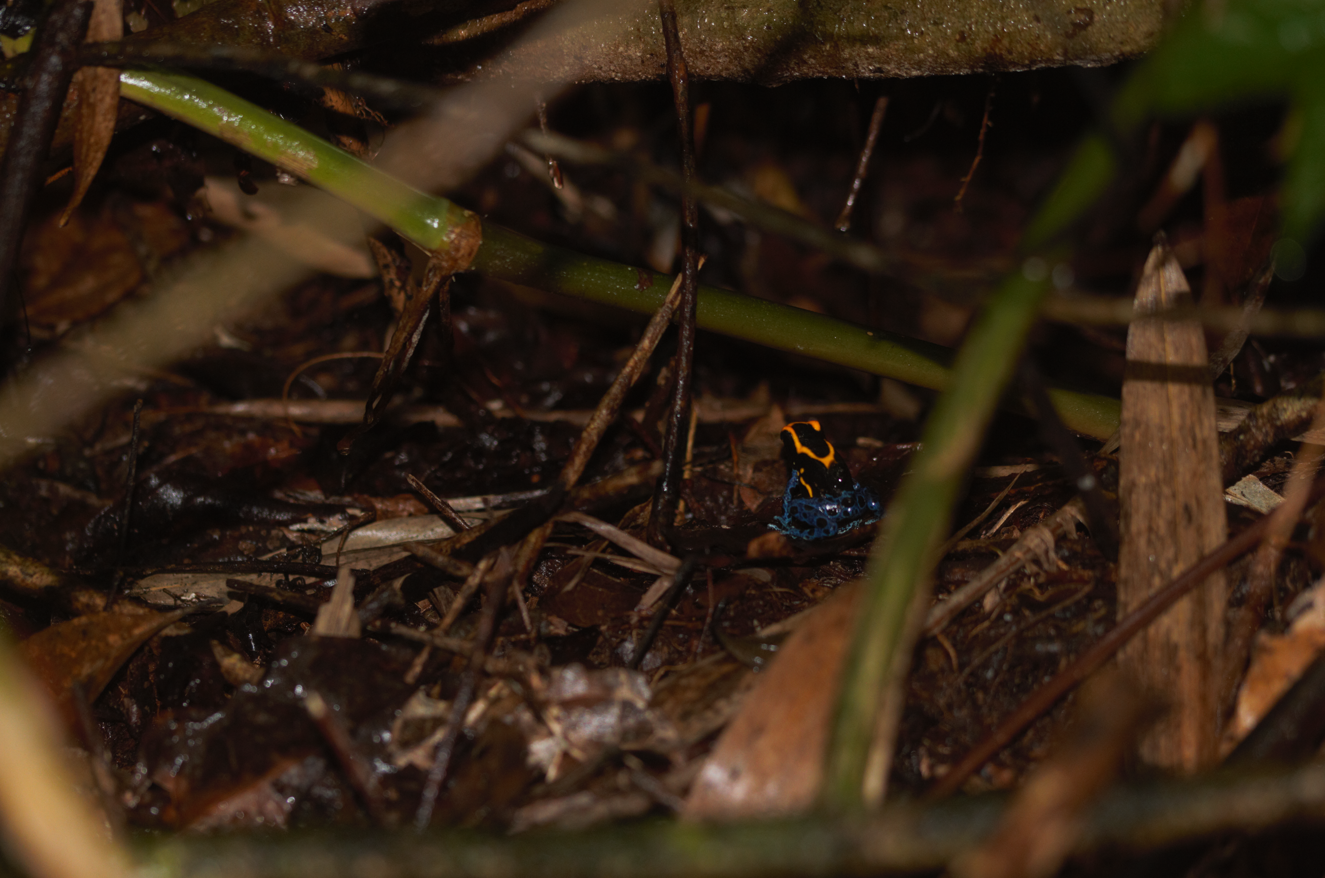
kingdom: Animalia
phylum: Chordata
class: Amphibia
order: Anura
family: Dendrobatidae
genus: Dendrobates
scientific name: Dendrobates tinctorius
